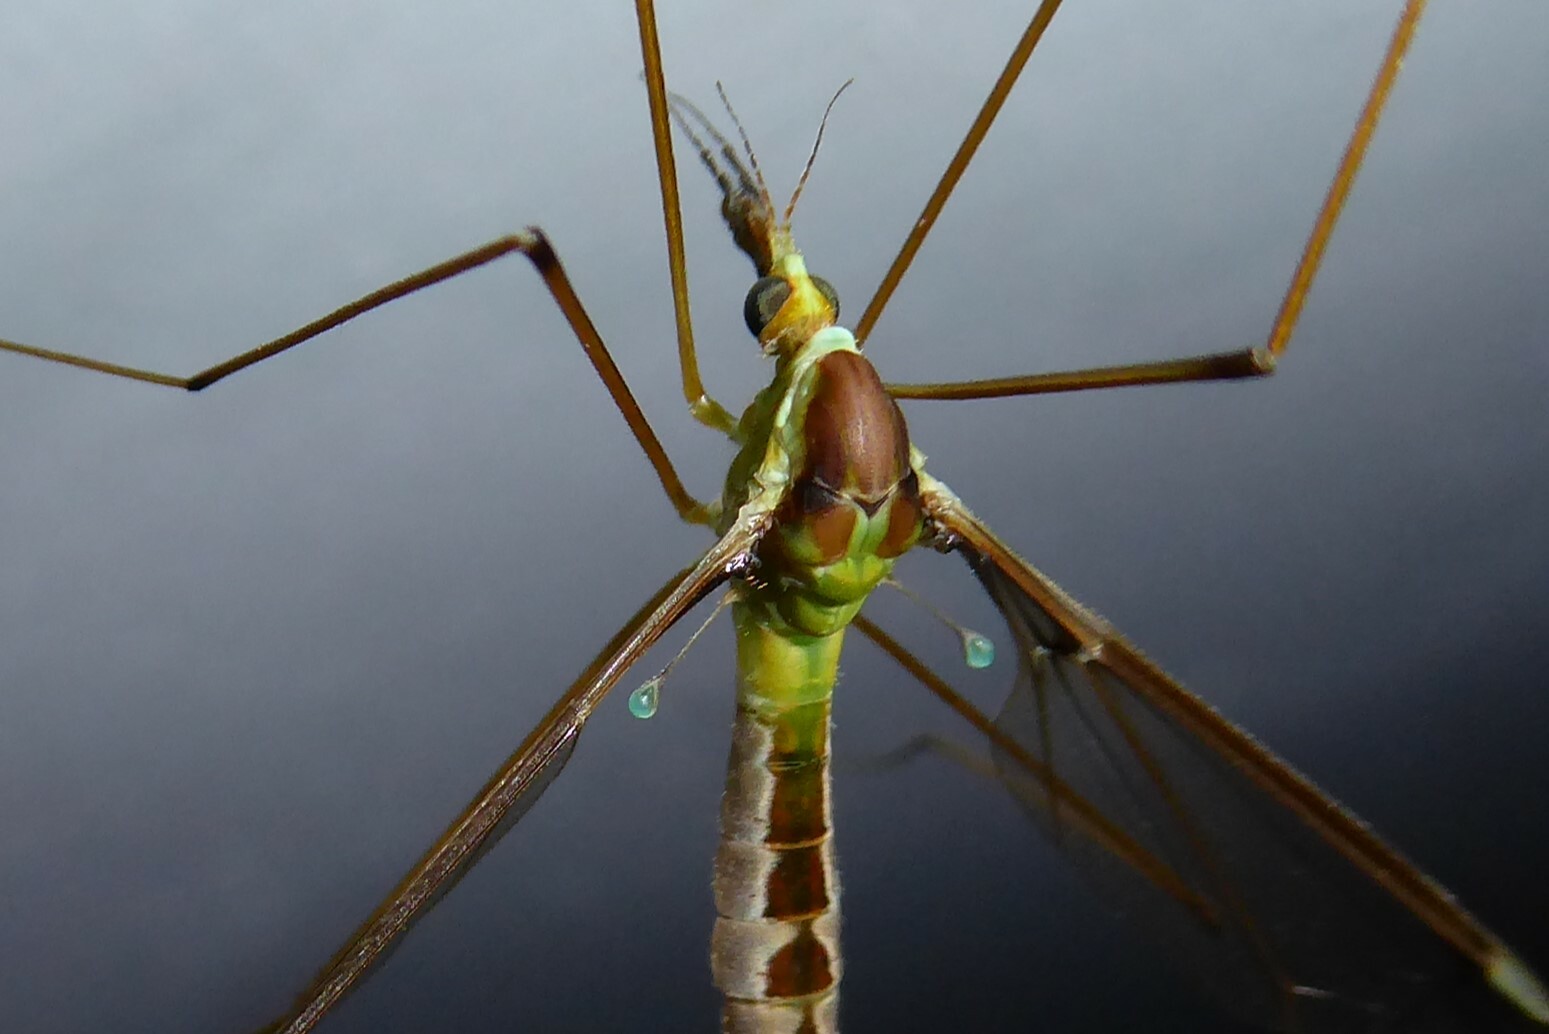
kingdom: Animalia
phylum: Arthropoda
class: Insecta
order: Diptera
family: Tipulidae
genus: Leptotarsus
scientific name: Leptotarsus albistigma
